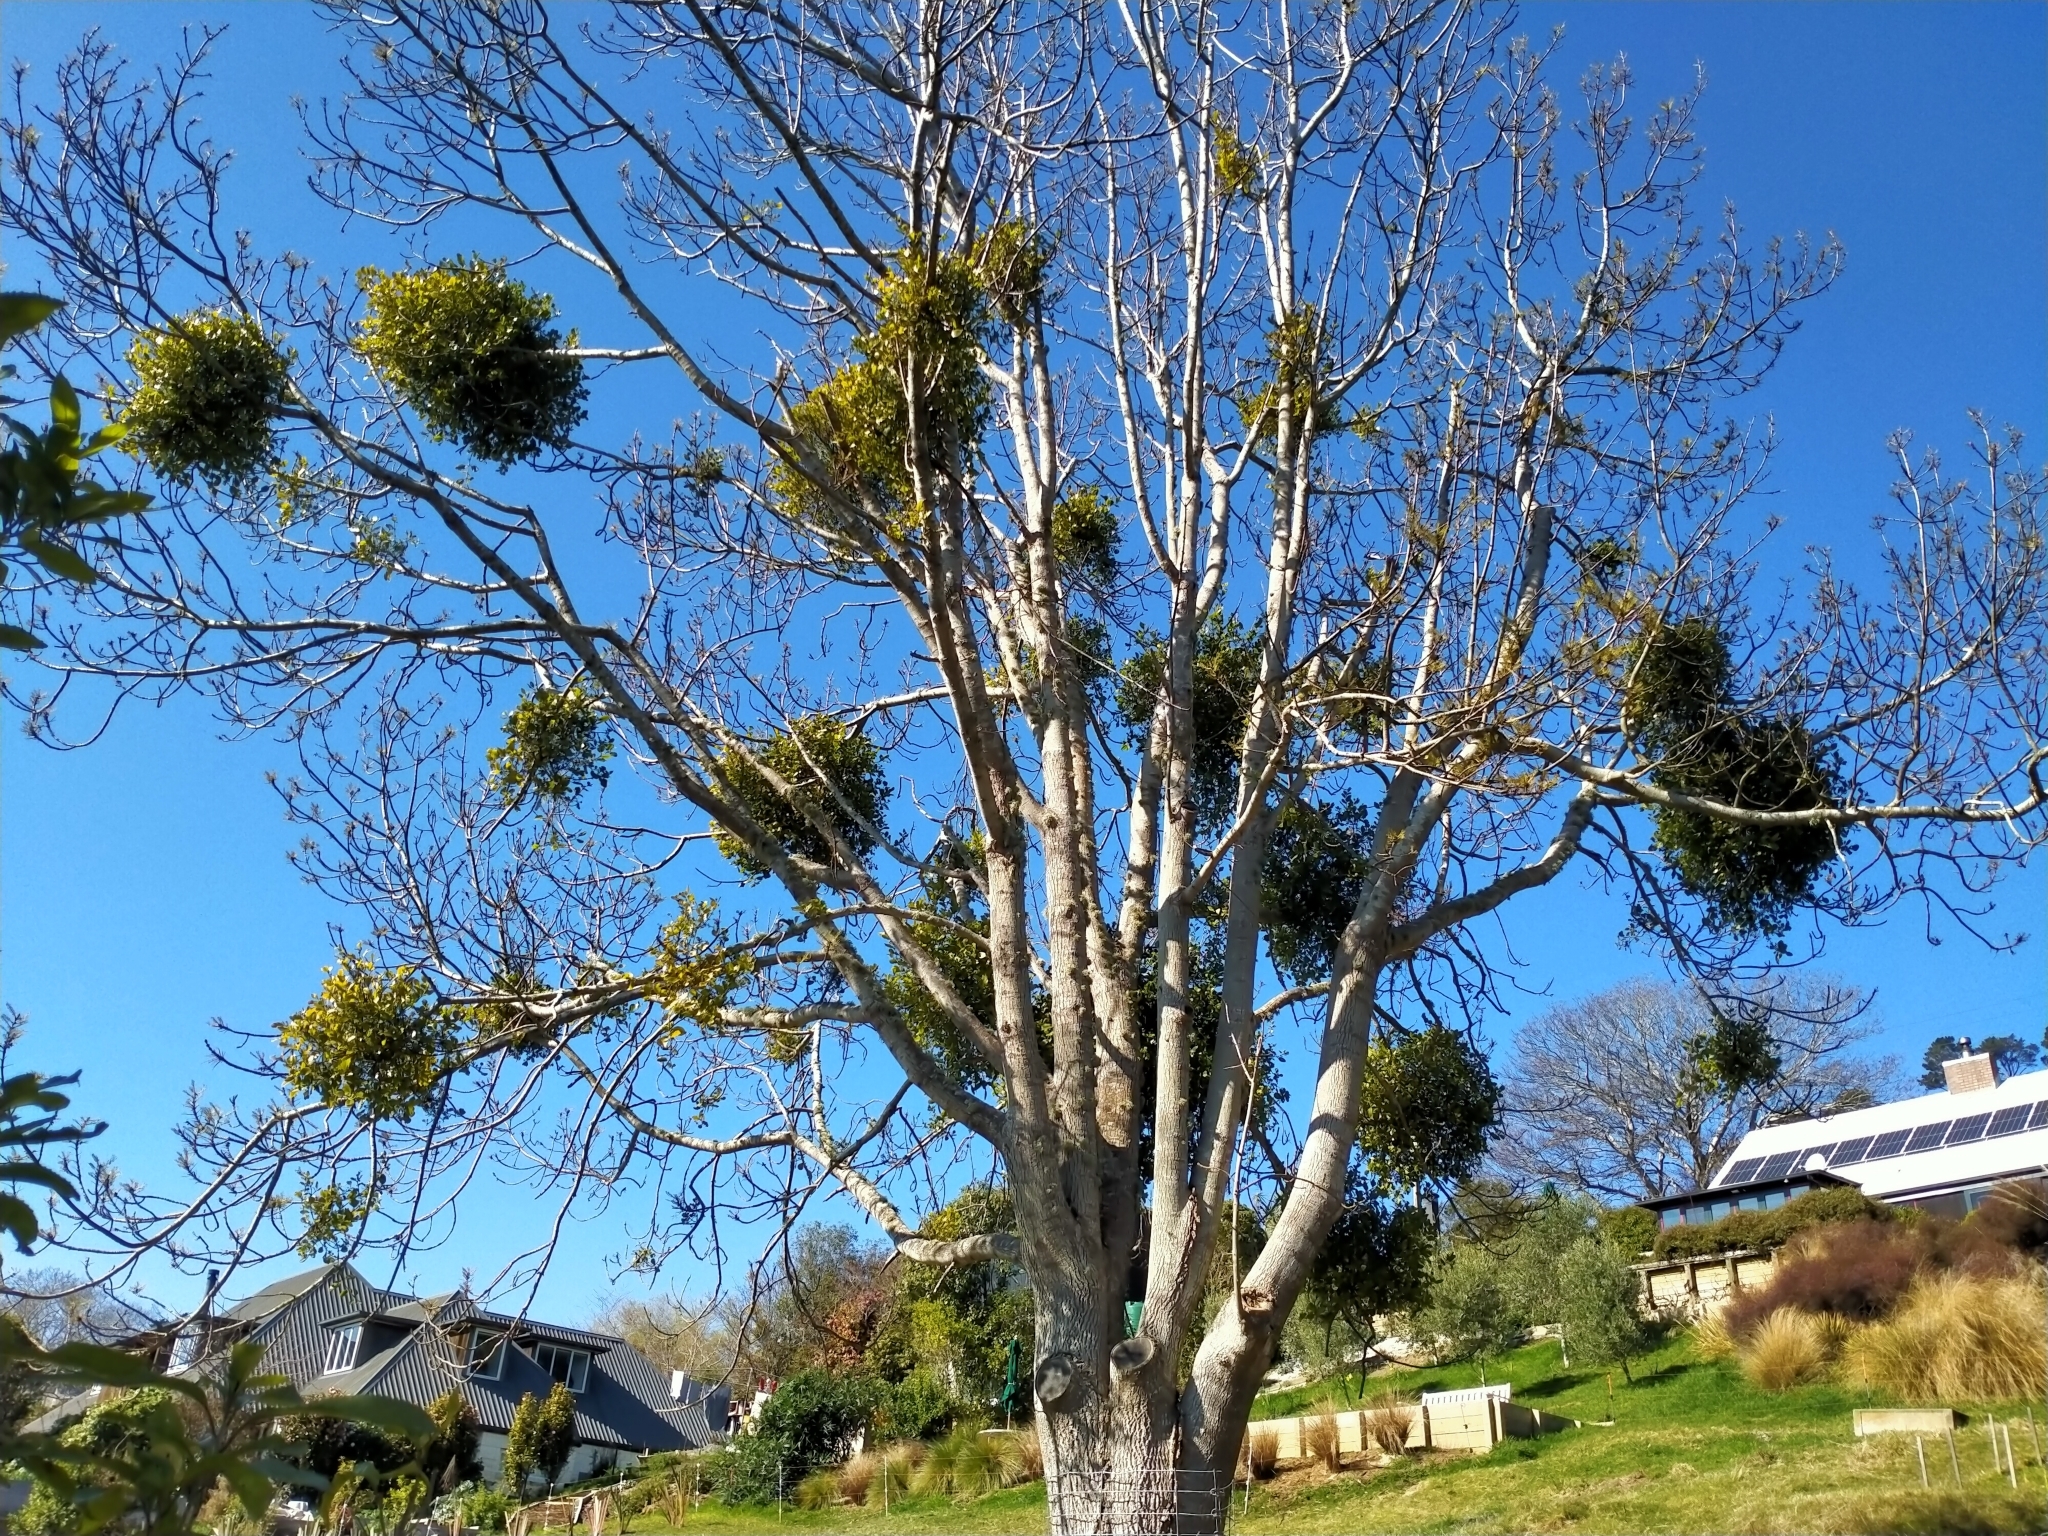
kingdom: Plantae
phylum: Tracheophyta
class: Magnoliopsida
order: Santalales
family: Loranthaceae
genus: Ileostylus
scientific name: Ileostylus micranthus
